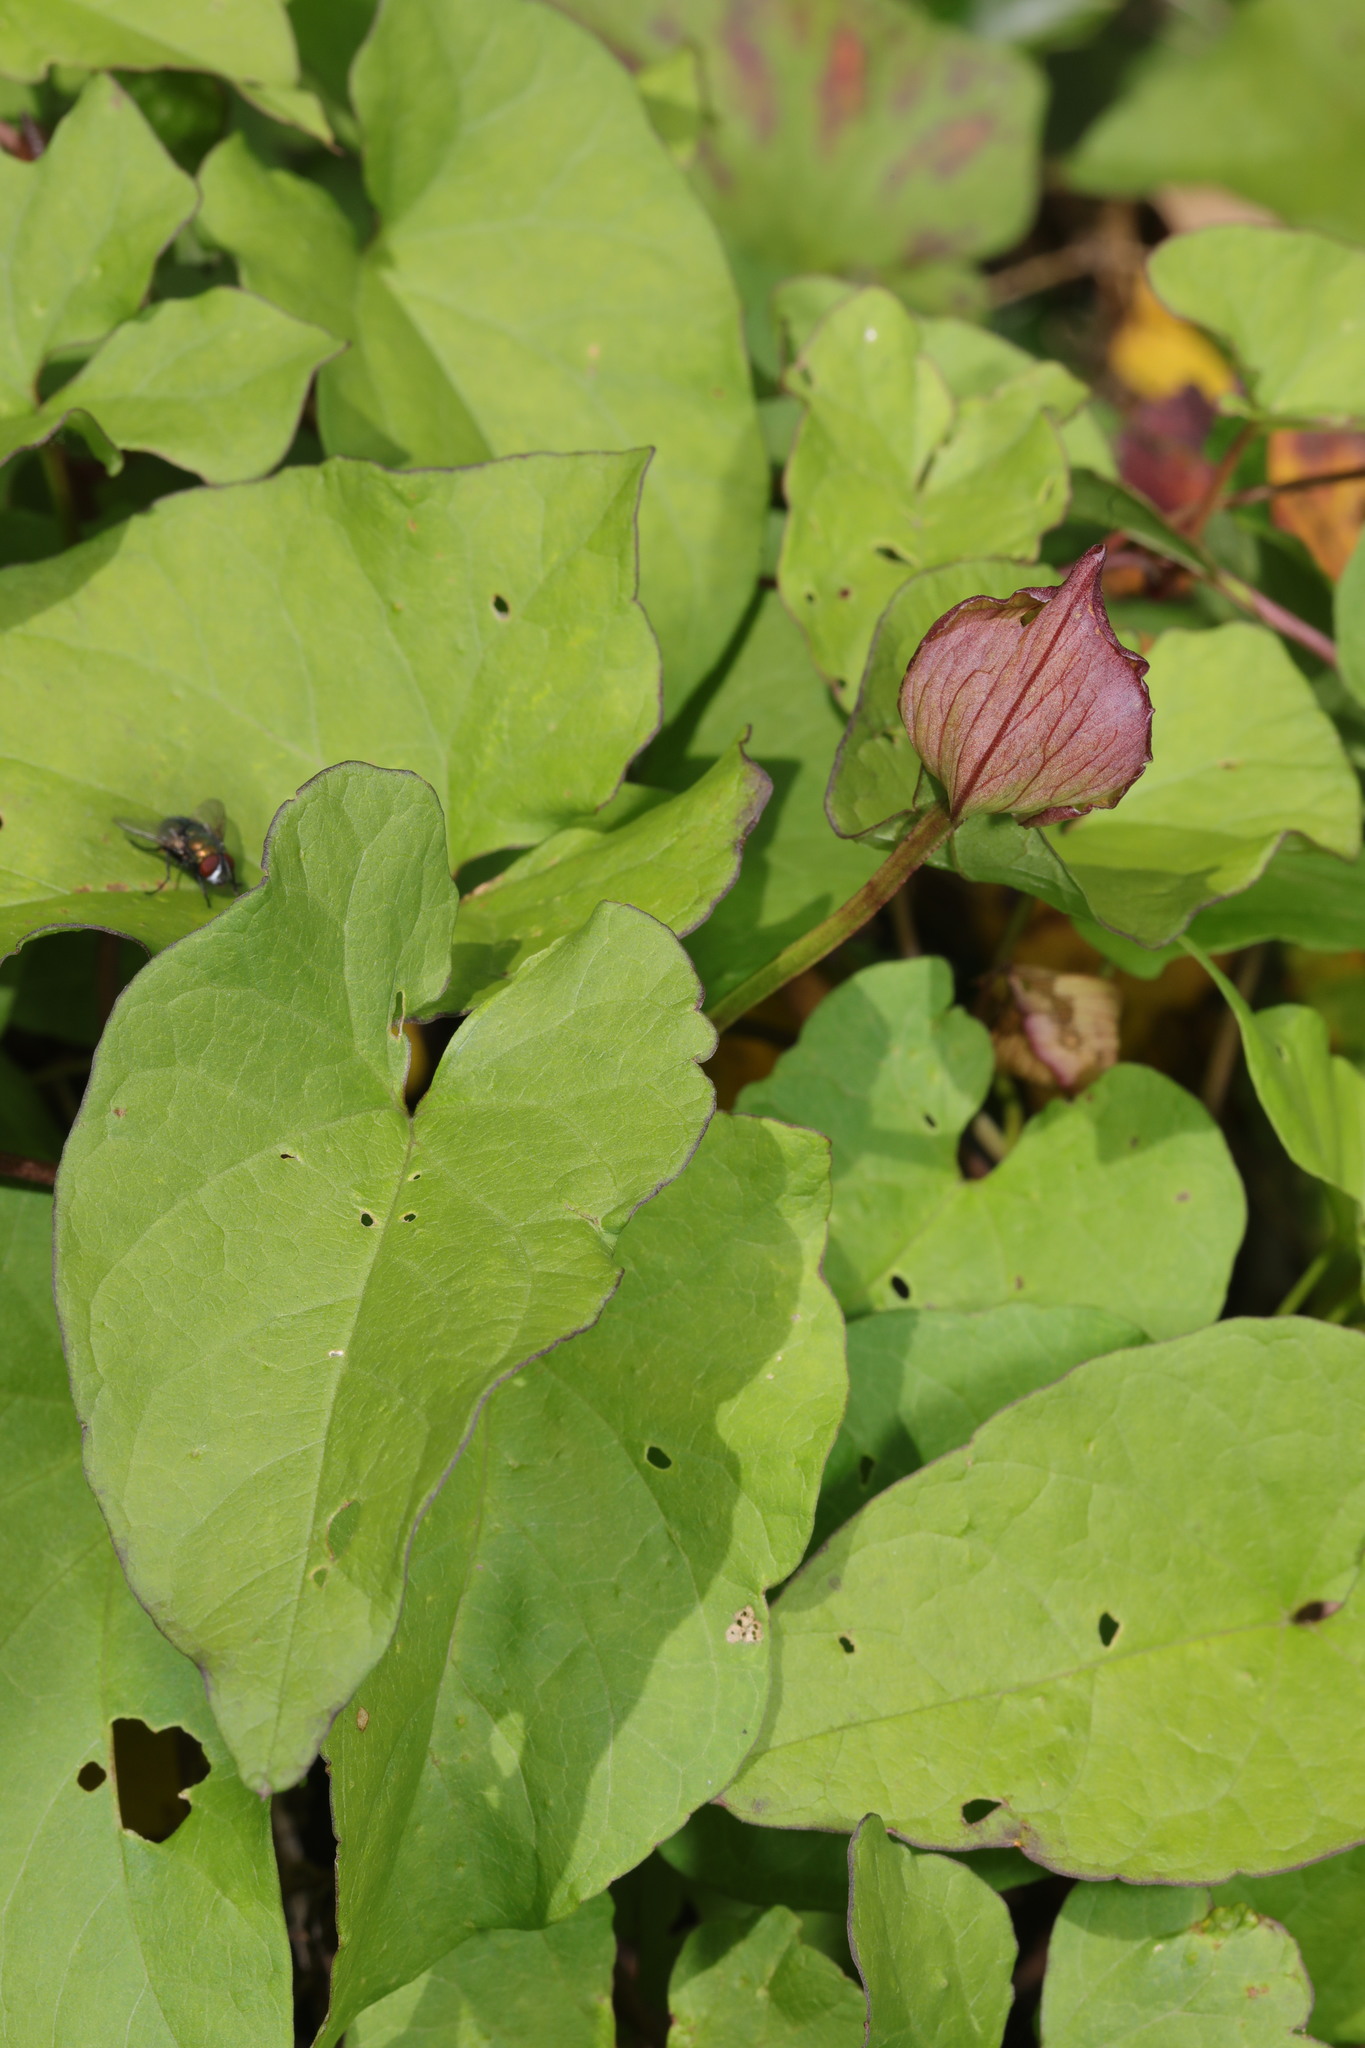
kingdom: Plantae
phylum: Tracheophyta
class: Magnoliopsida
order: Solanales
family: Convolvulaceae
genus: Calystegia
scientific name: Calystegia silvatica
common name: Large bindweed
